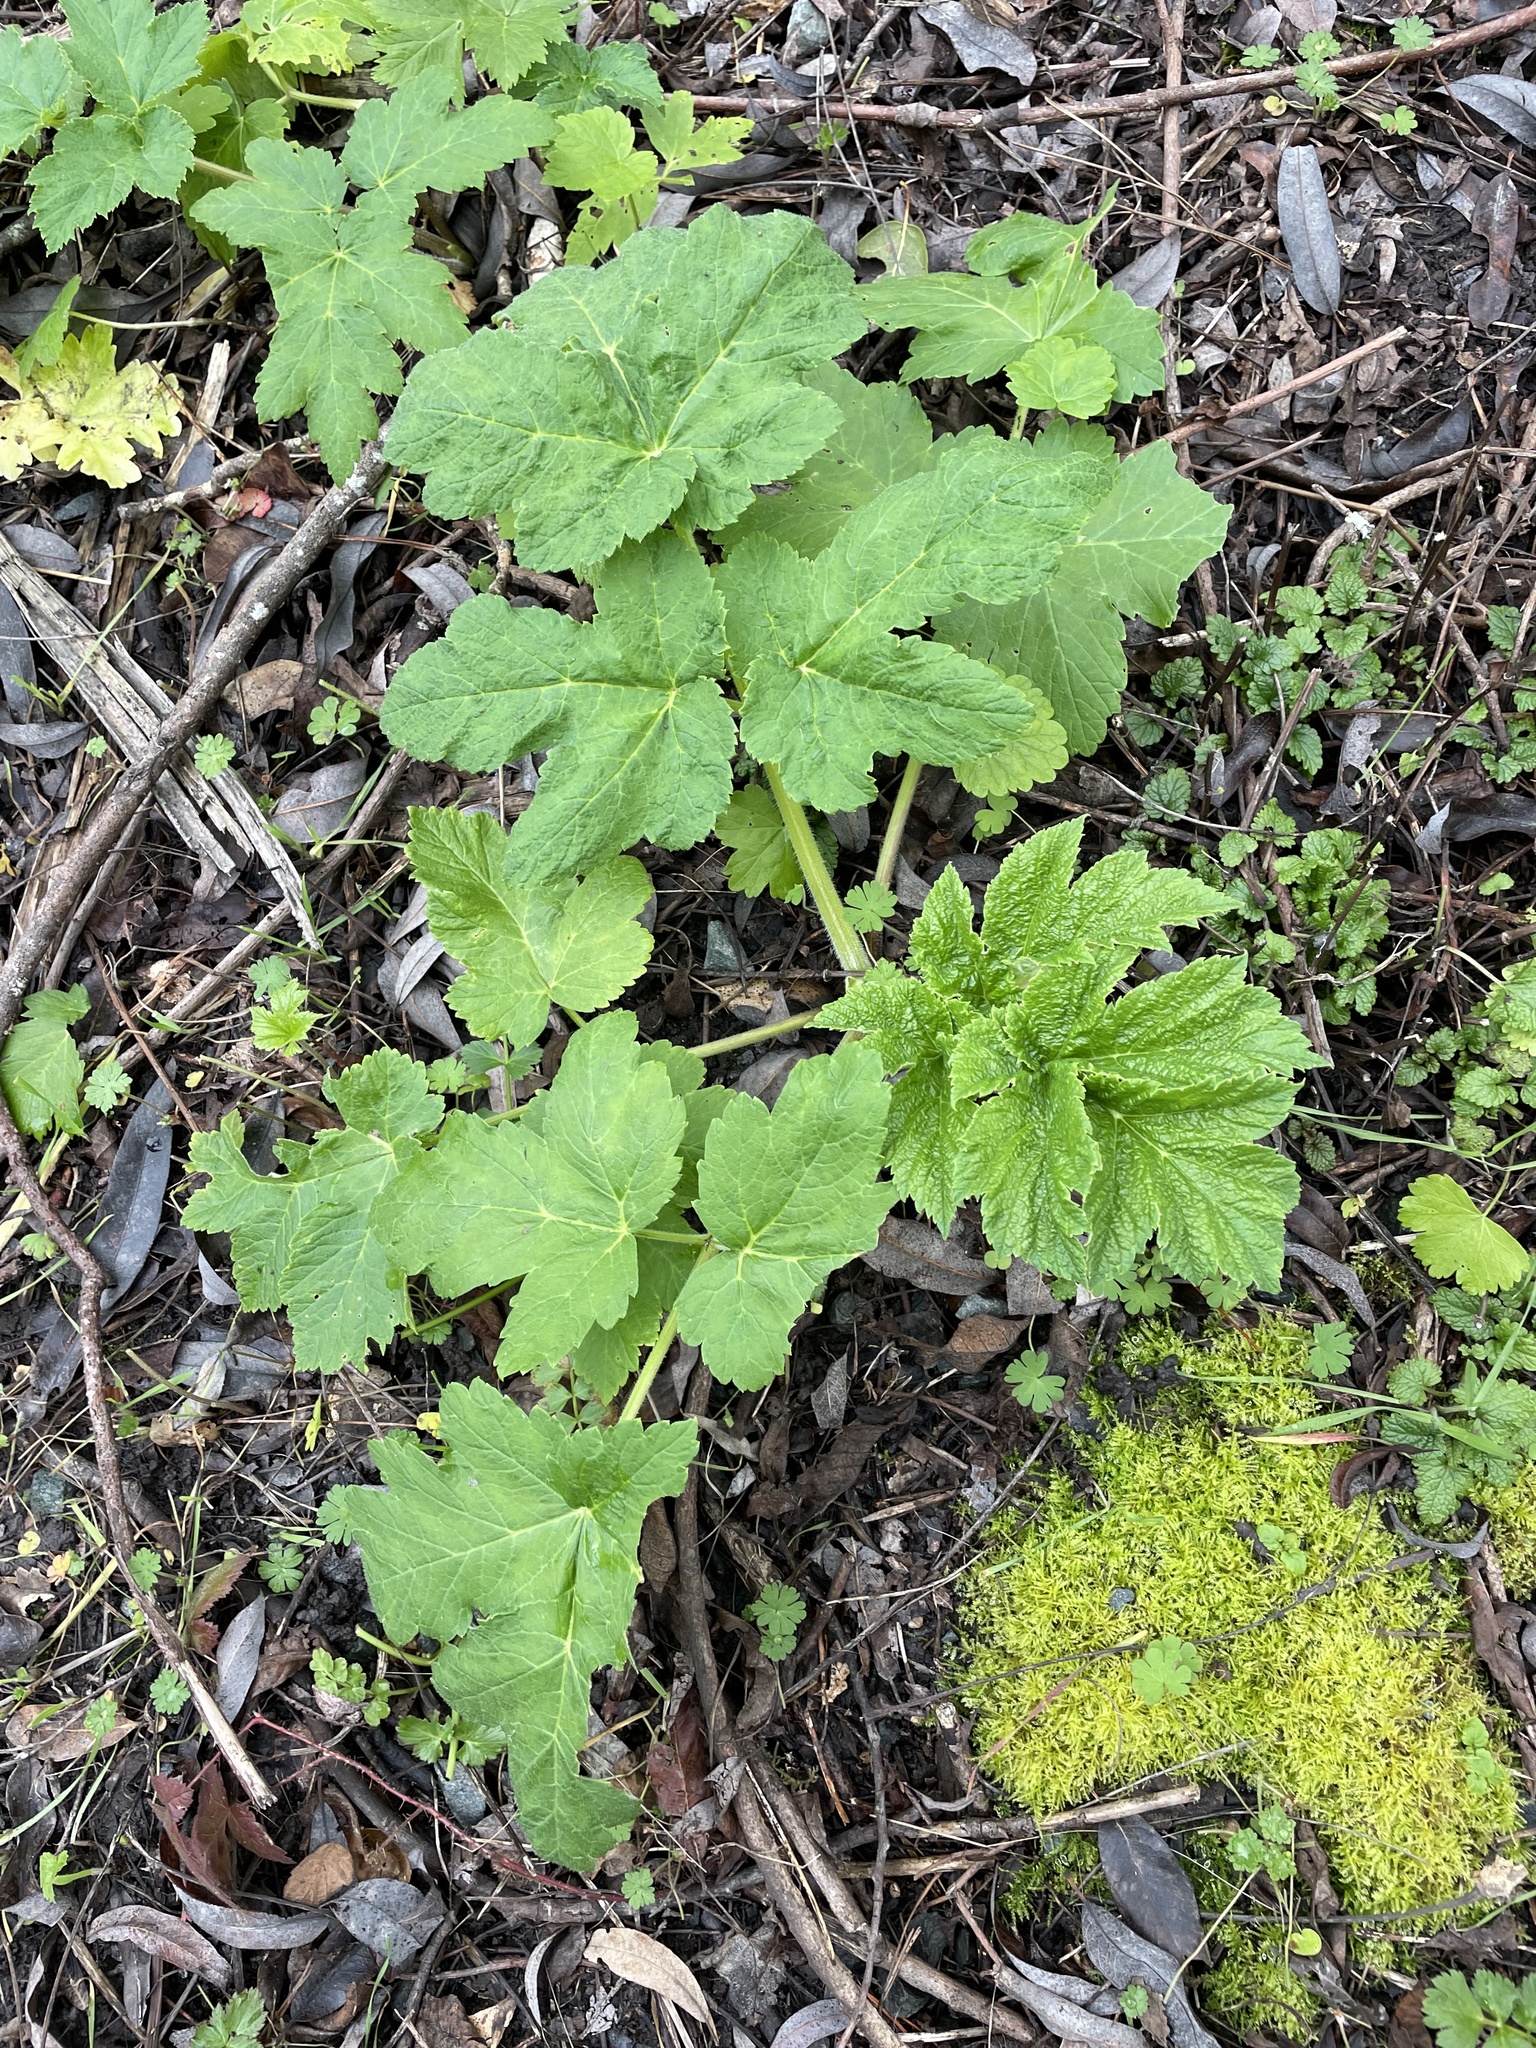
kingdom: Plantae
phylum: Tracheophyta
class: Magnoliopsida
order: Apiales
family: Apiaceae
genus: Heracleum
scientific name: Heracleum maximum
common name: American cow parsnip
